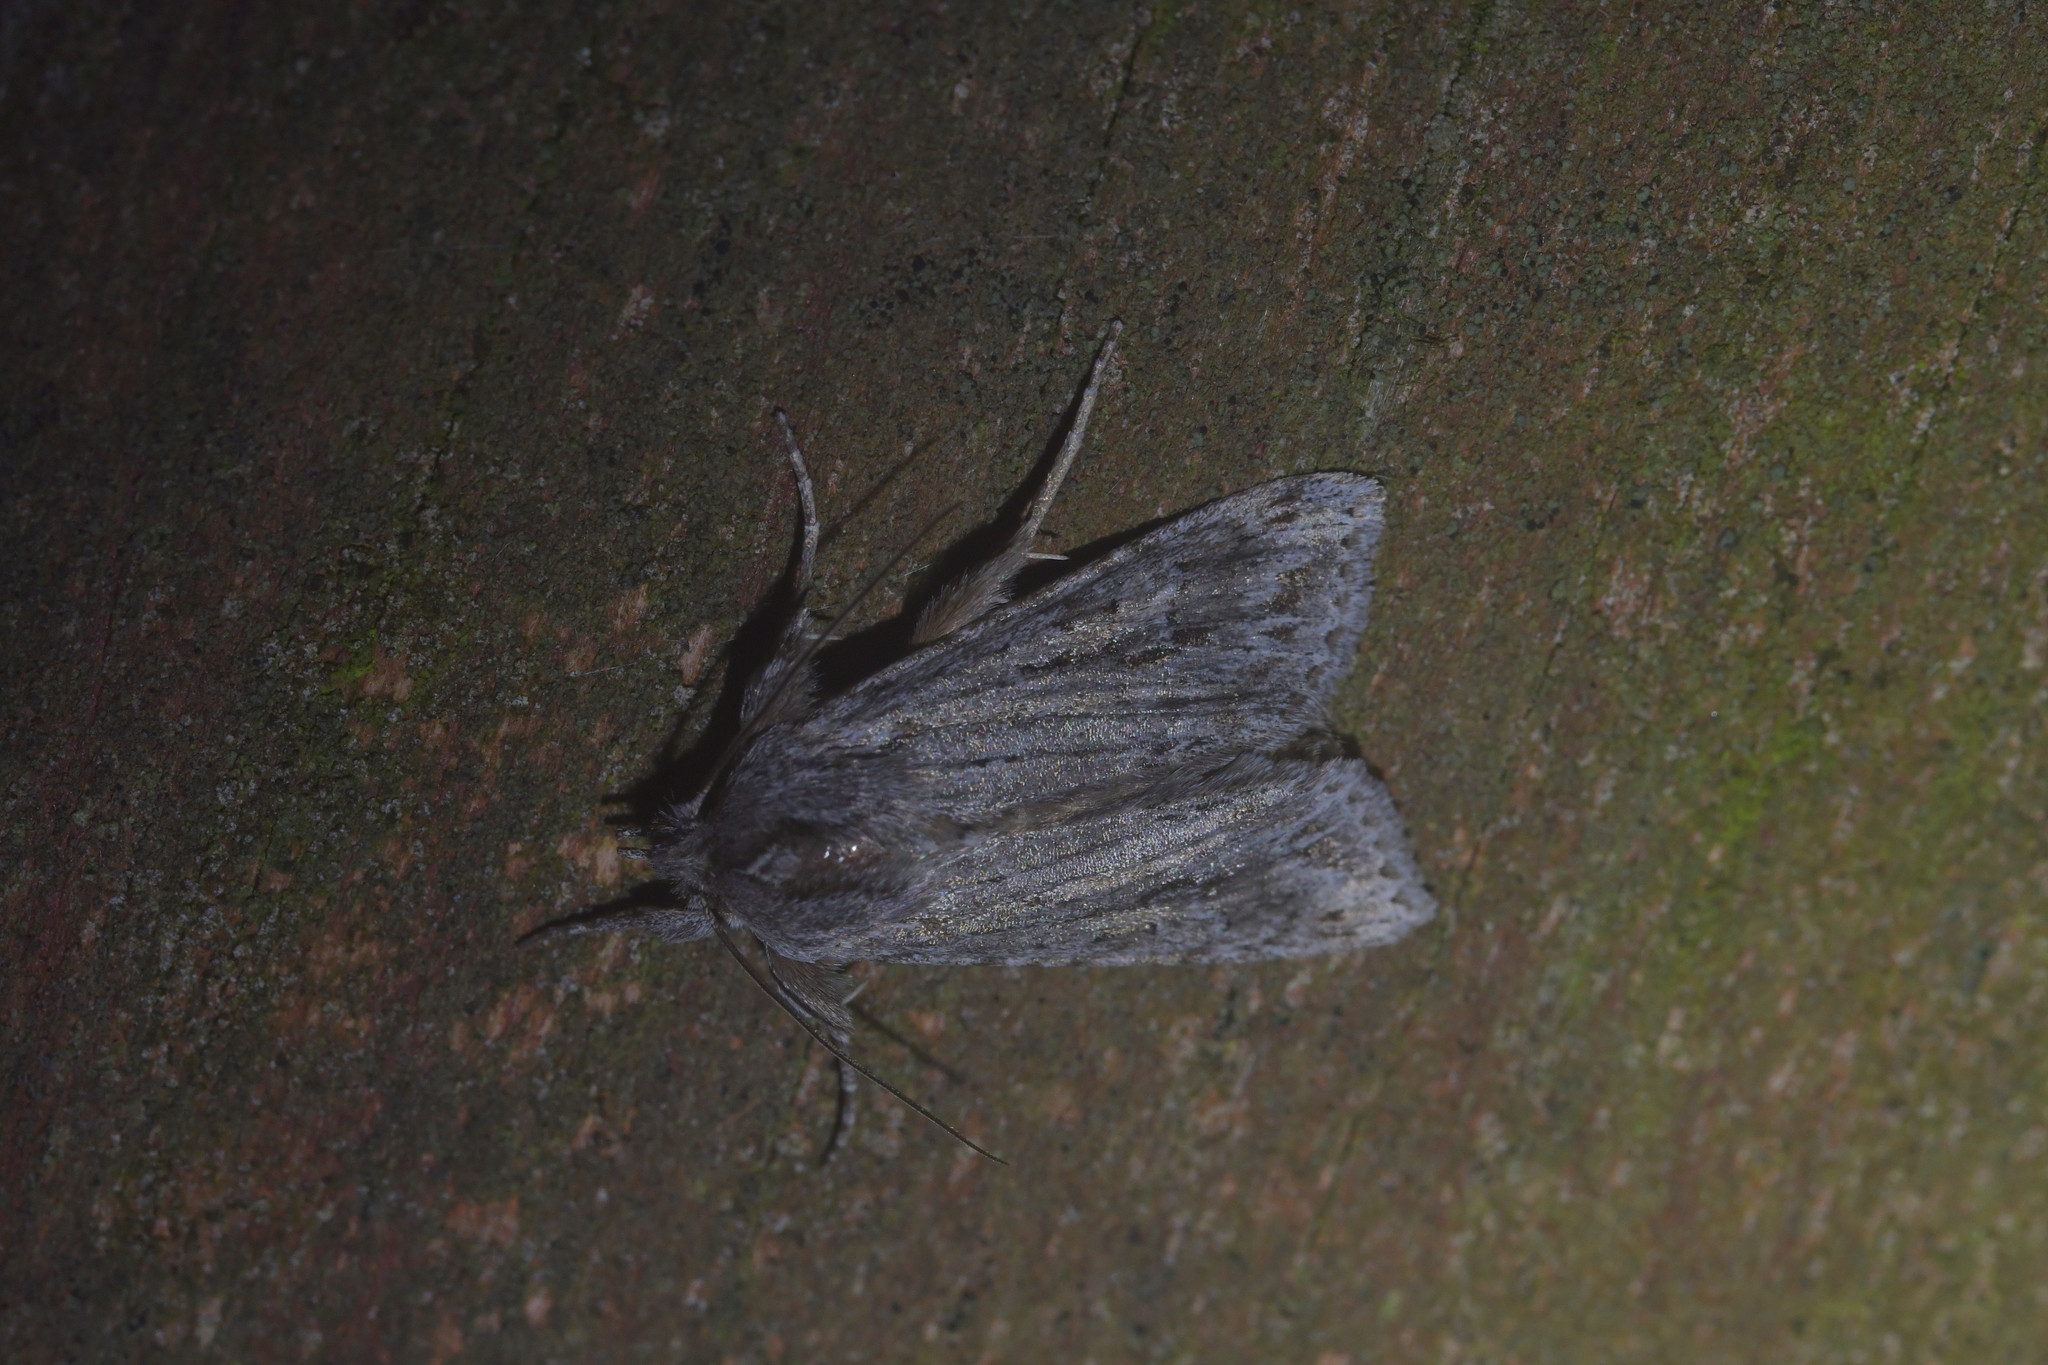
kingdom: Animalia
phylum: Arthropoda
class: Insecta
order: Lepidoptera
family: Noctuidae
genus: Physetica
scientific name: Physetica sequens
